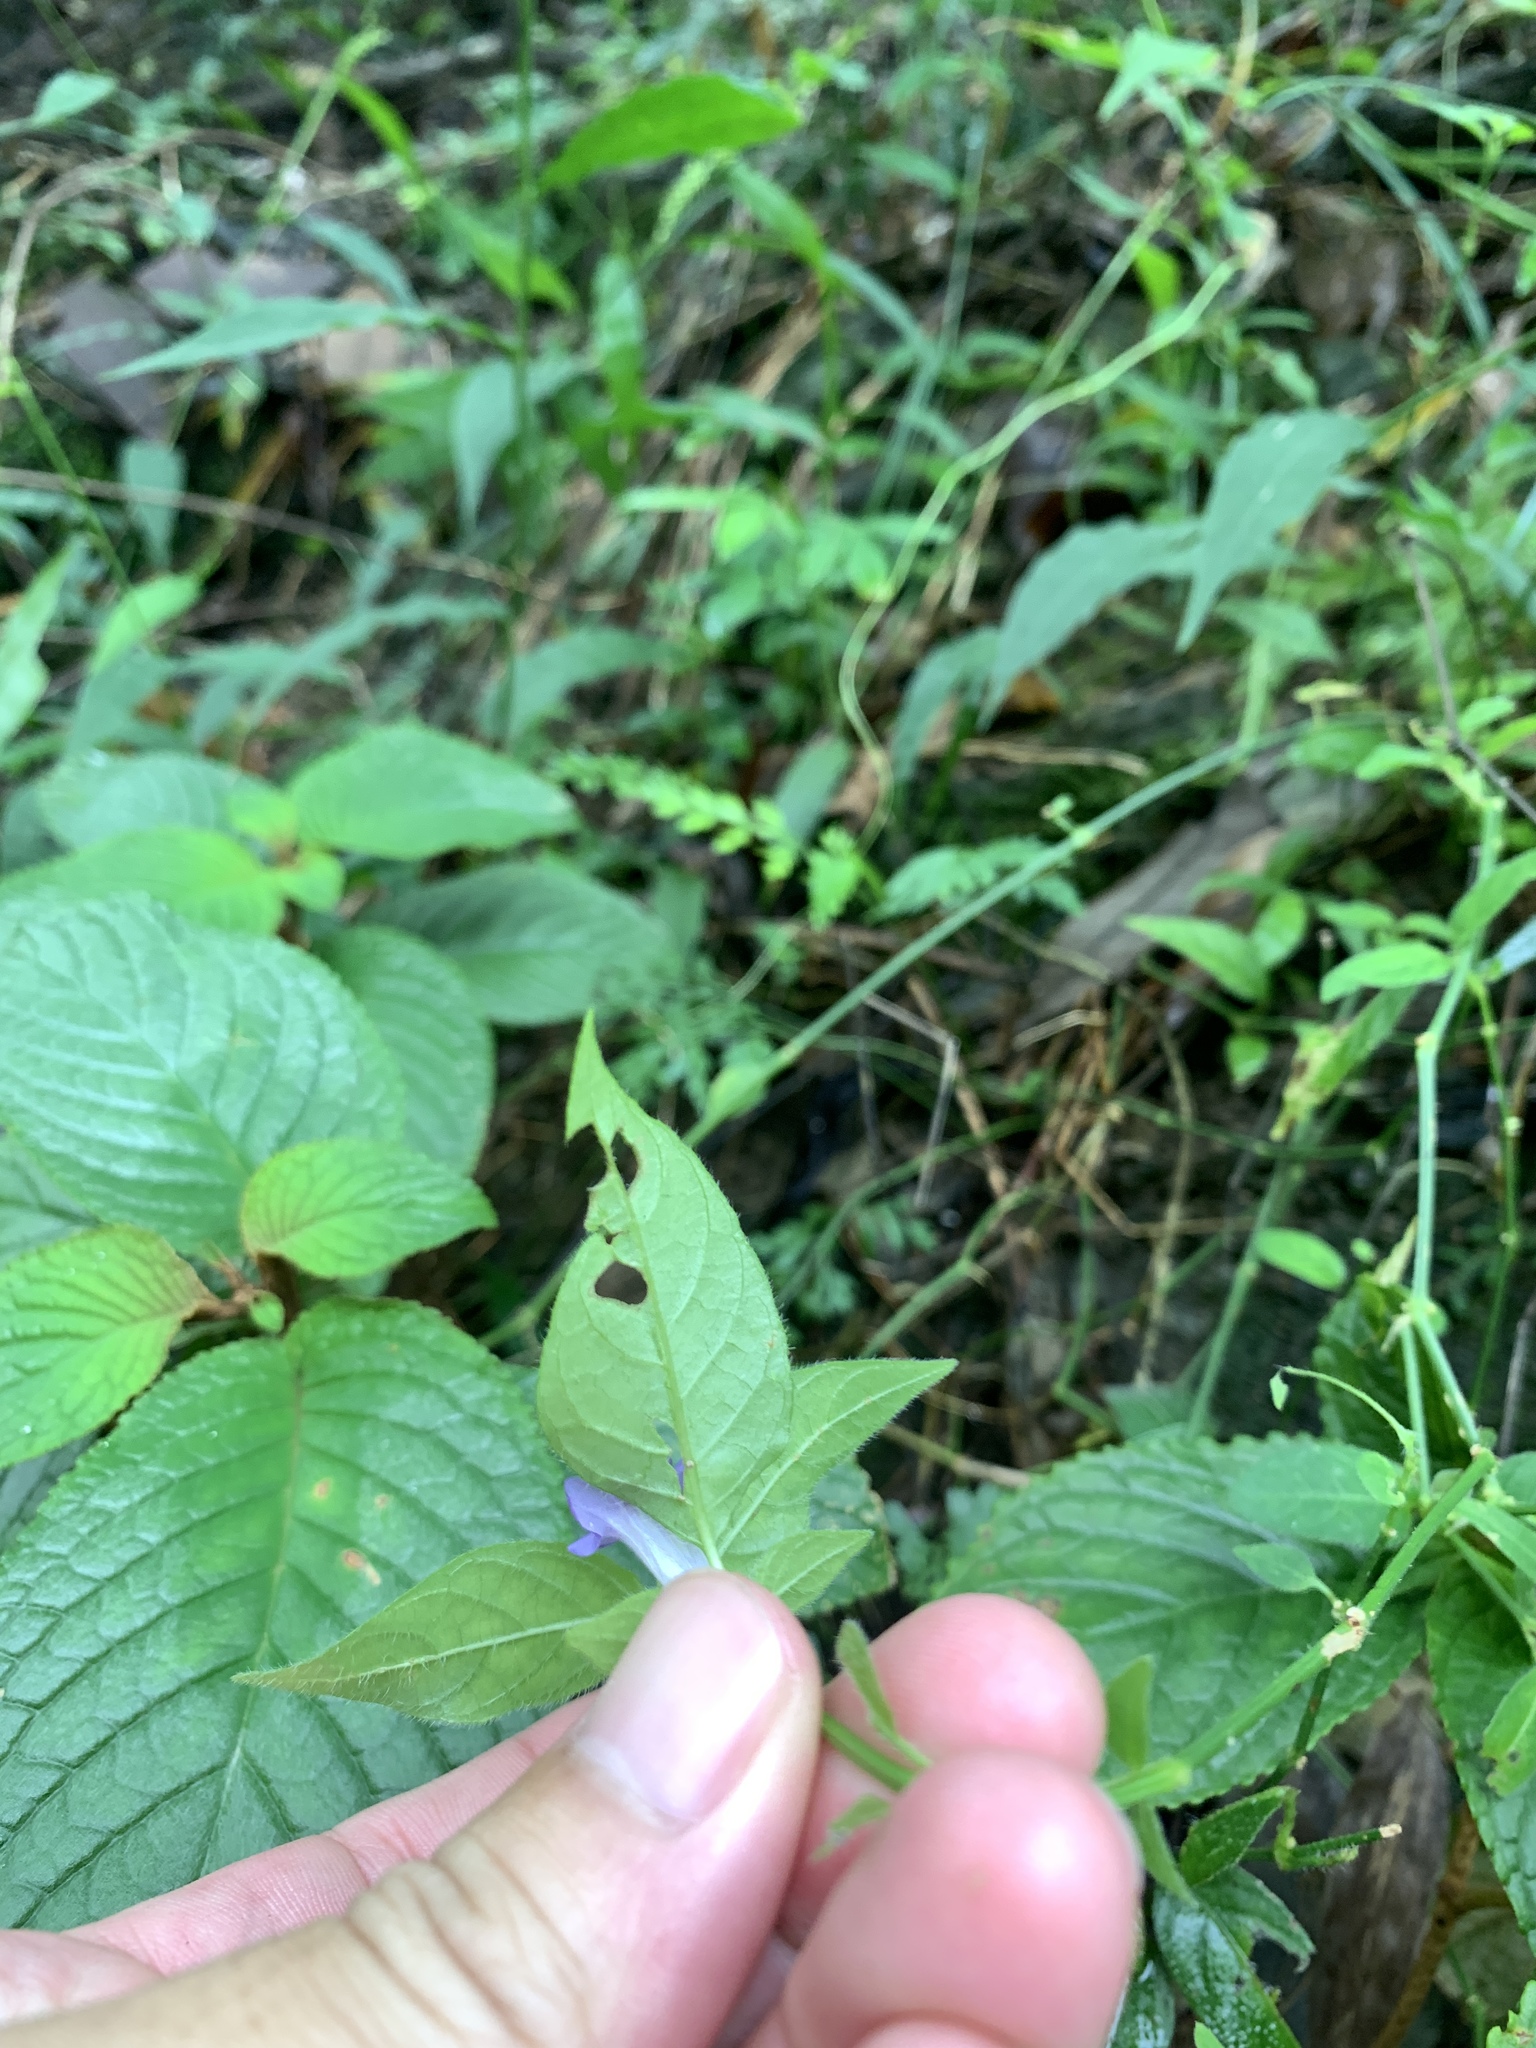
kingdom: Plantae
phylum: Tracheophyta
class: Magnoliopsida
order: Lamiales
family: Acanthaceae
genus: Ruellia
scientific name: Ruellia repens
